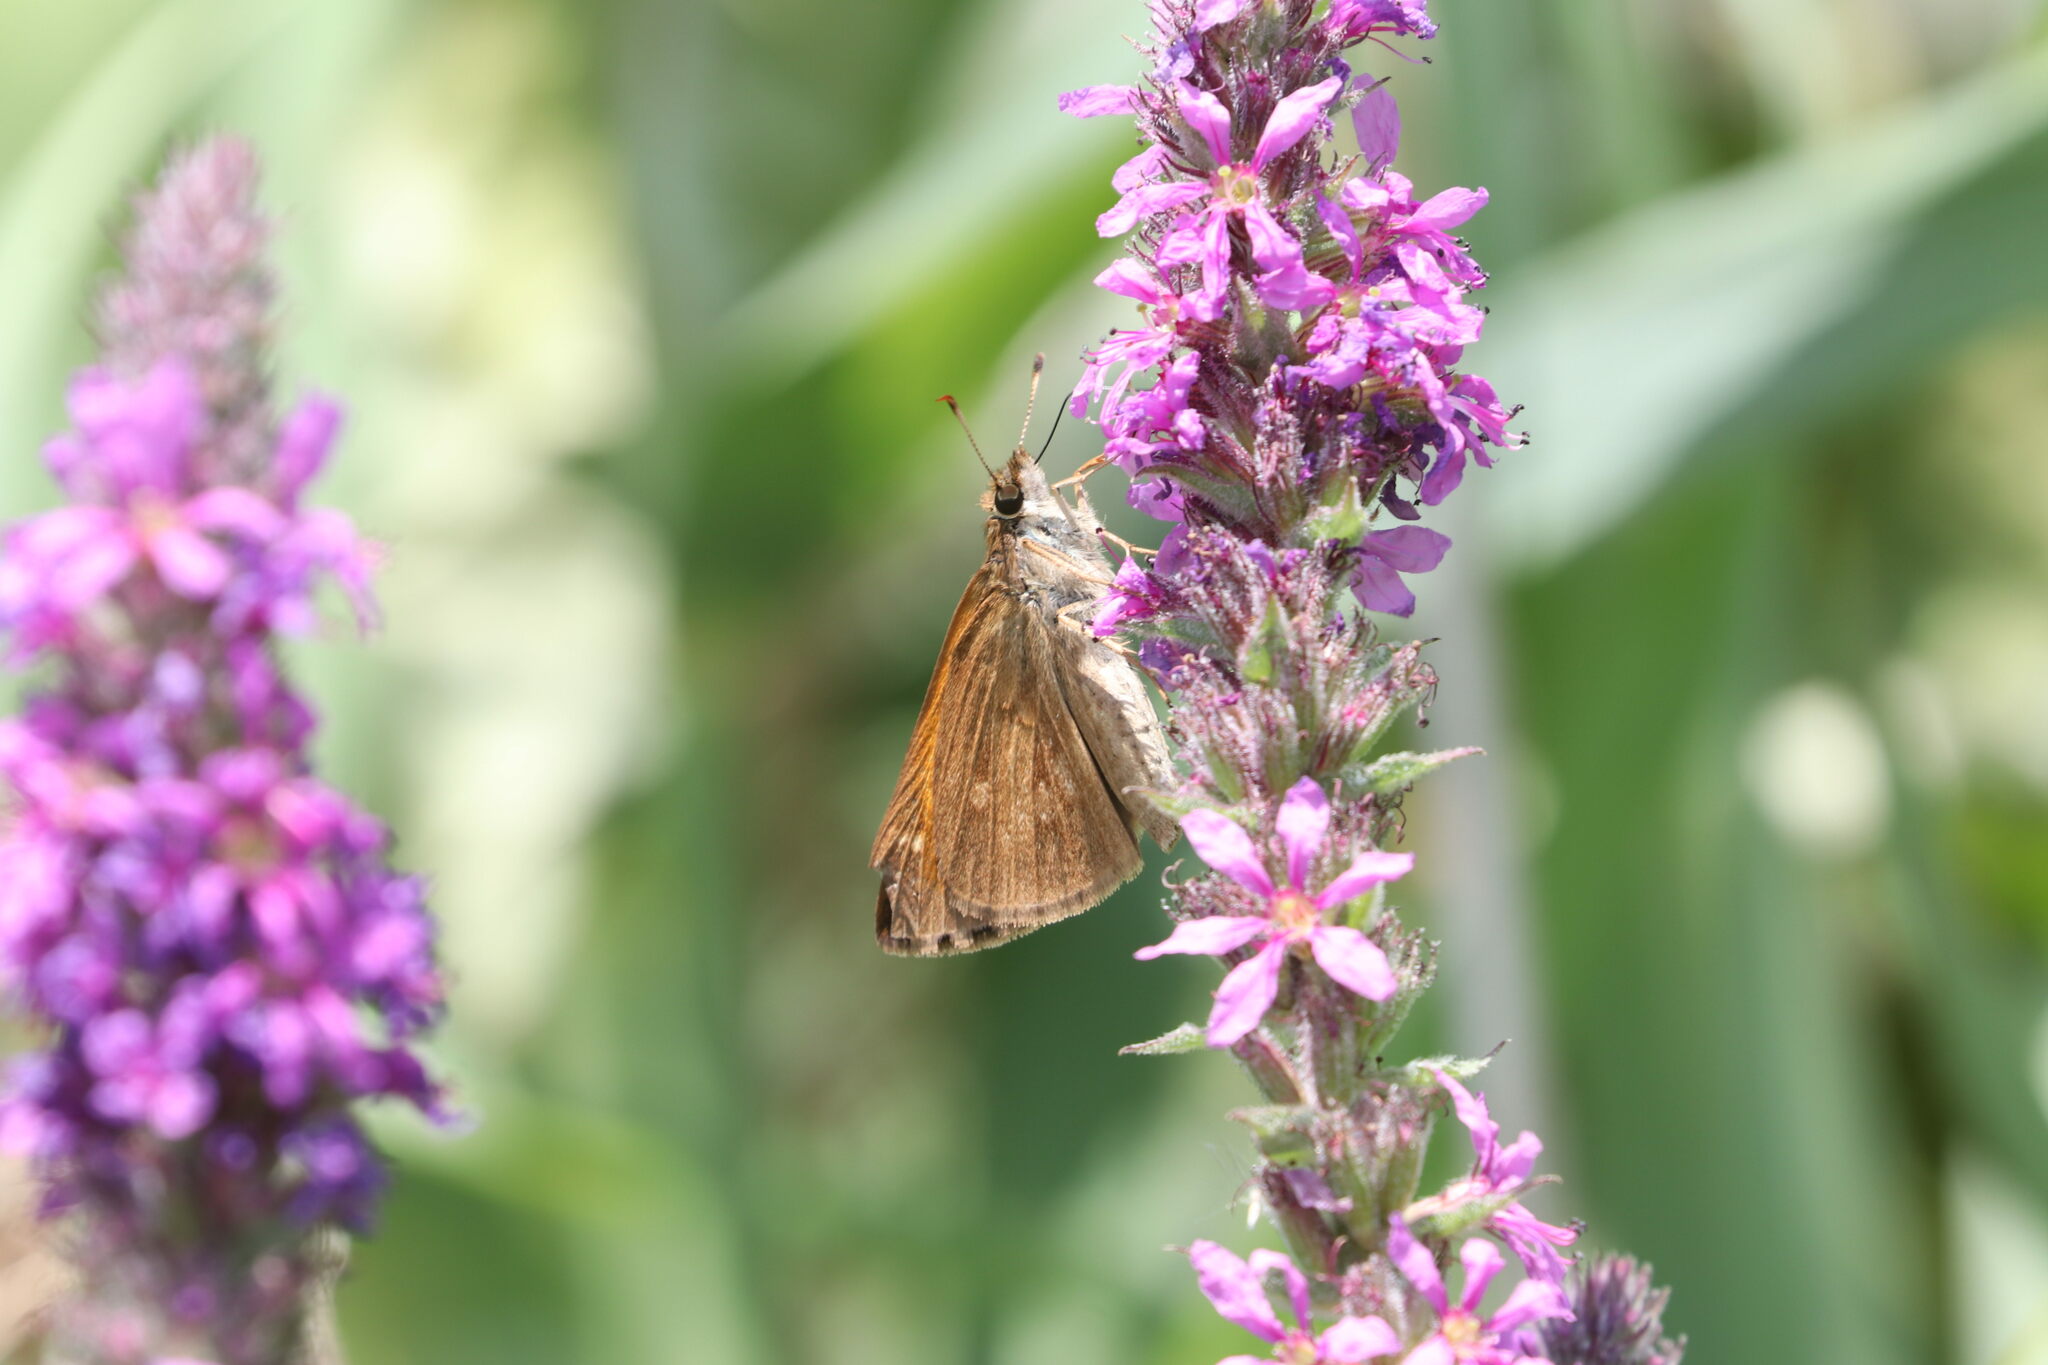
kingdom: Animalia
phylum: Arthropoda
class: Insecta
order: Lepidoptera
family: Hesperiidae
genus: Poanes
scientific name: Poanes viator
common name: Broad-winged skipper
